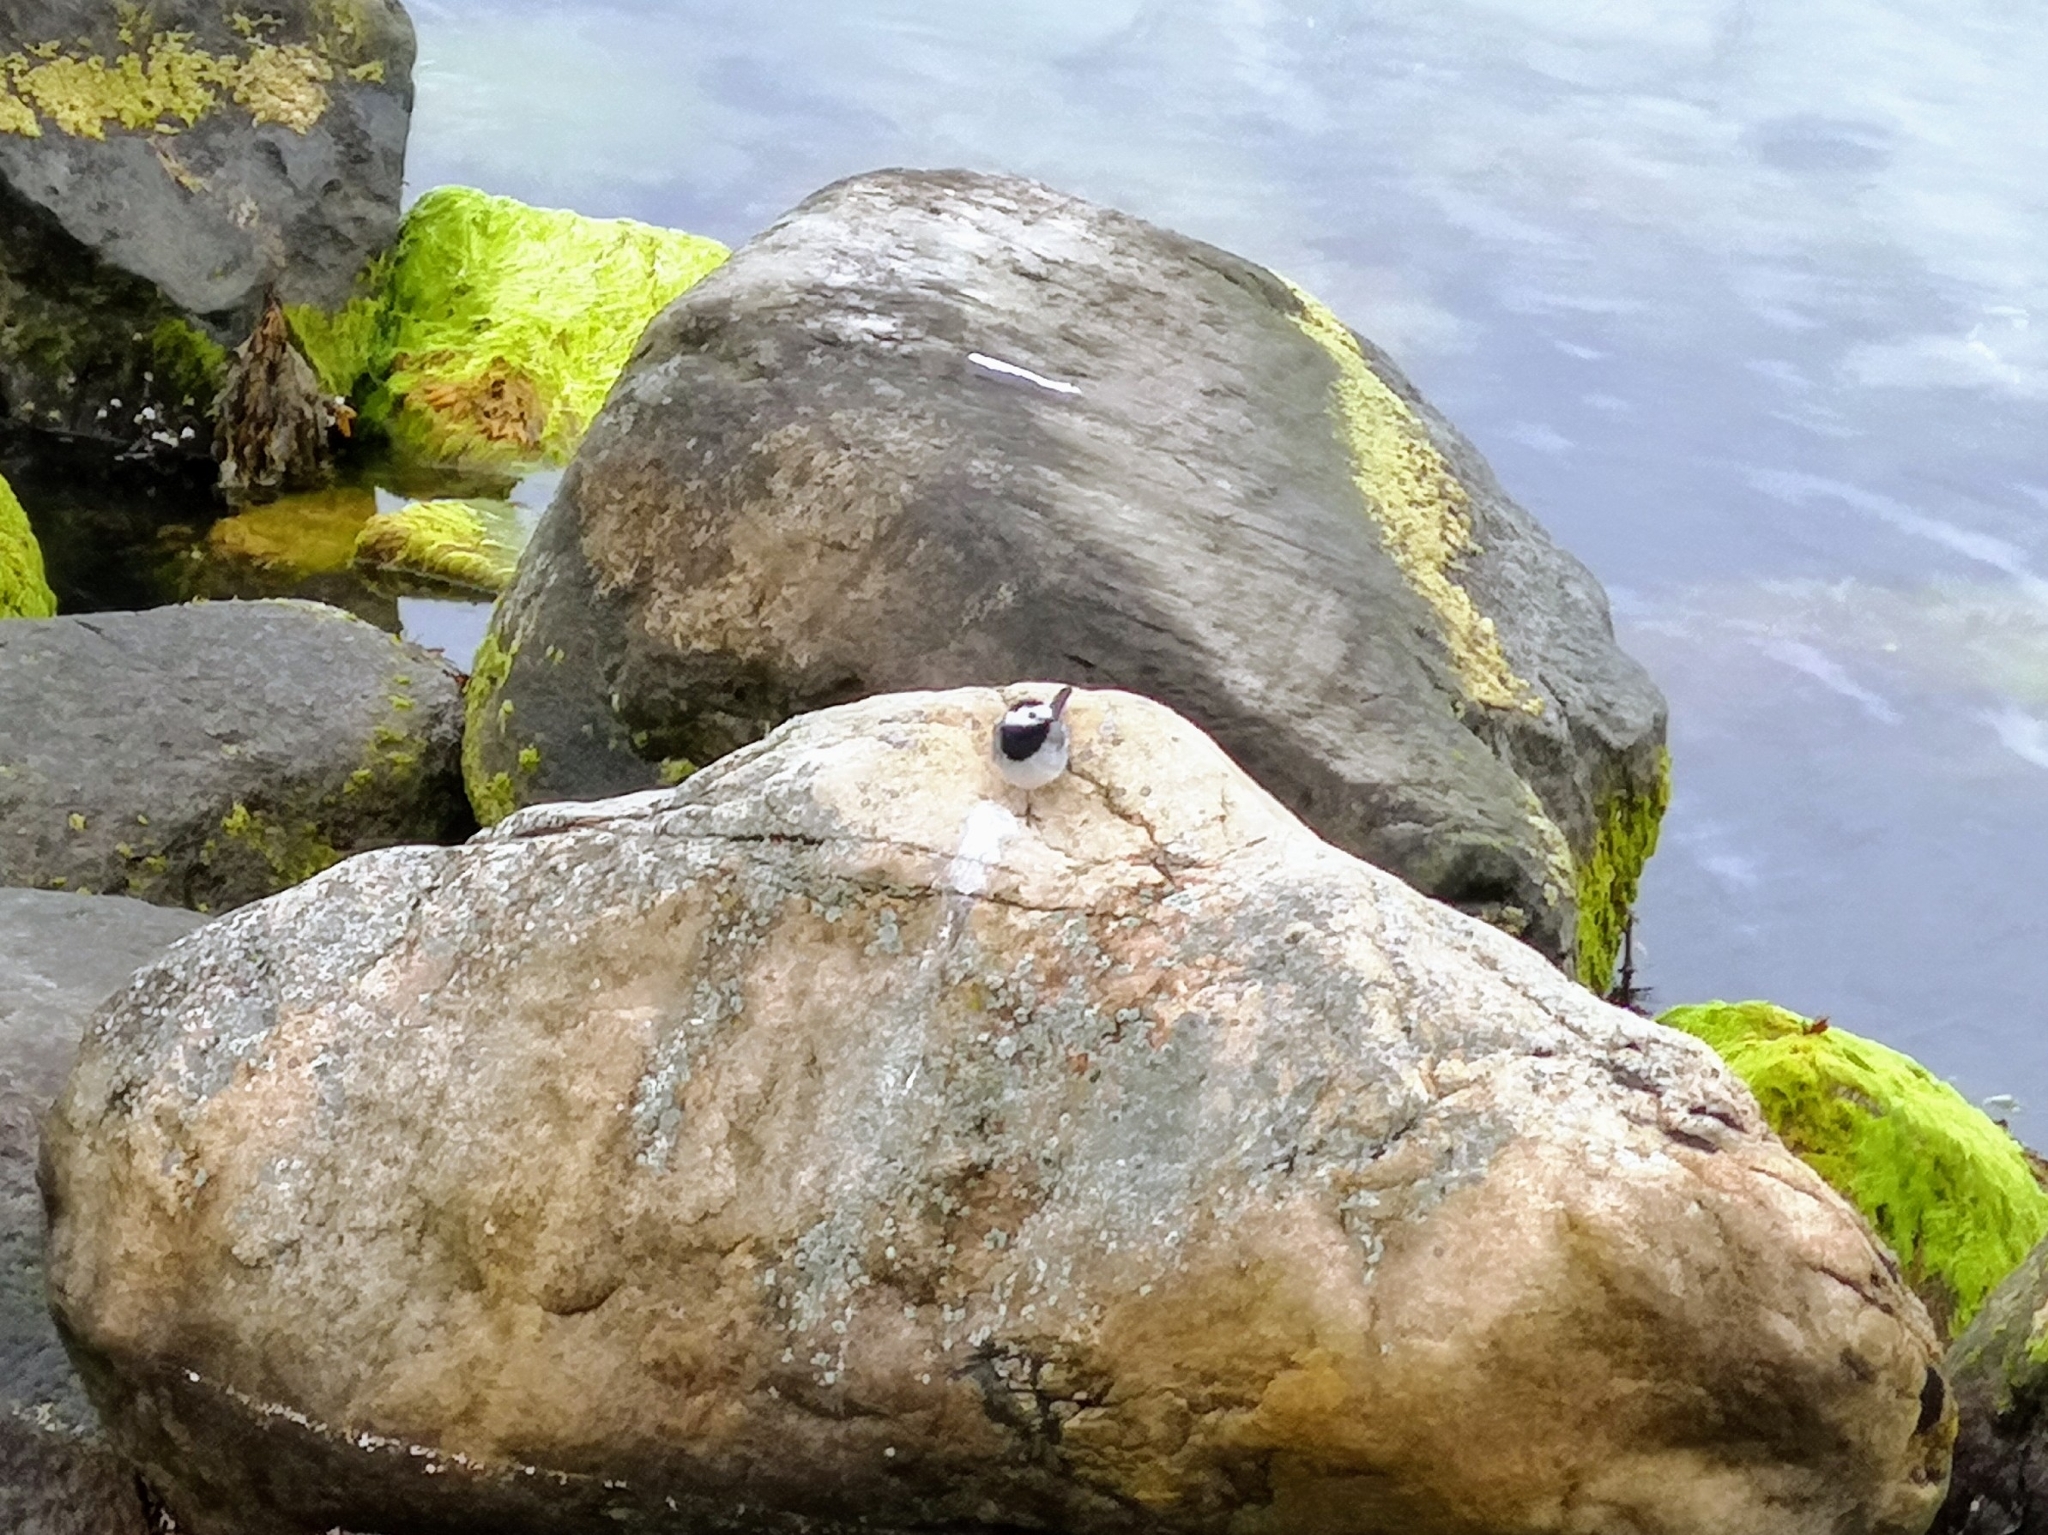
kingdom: Animalia
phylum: Chordata
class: Aves
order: Passeriformes
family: Motacillidae
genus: Motacilla
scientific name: Motacilla alba
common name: White wagtail
